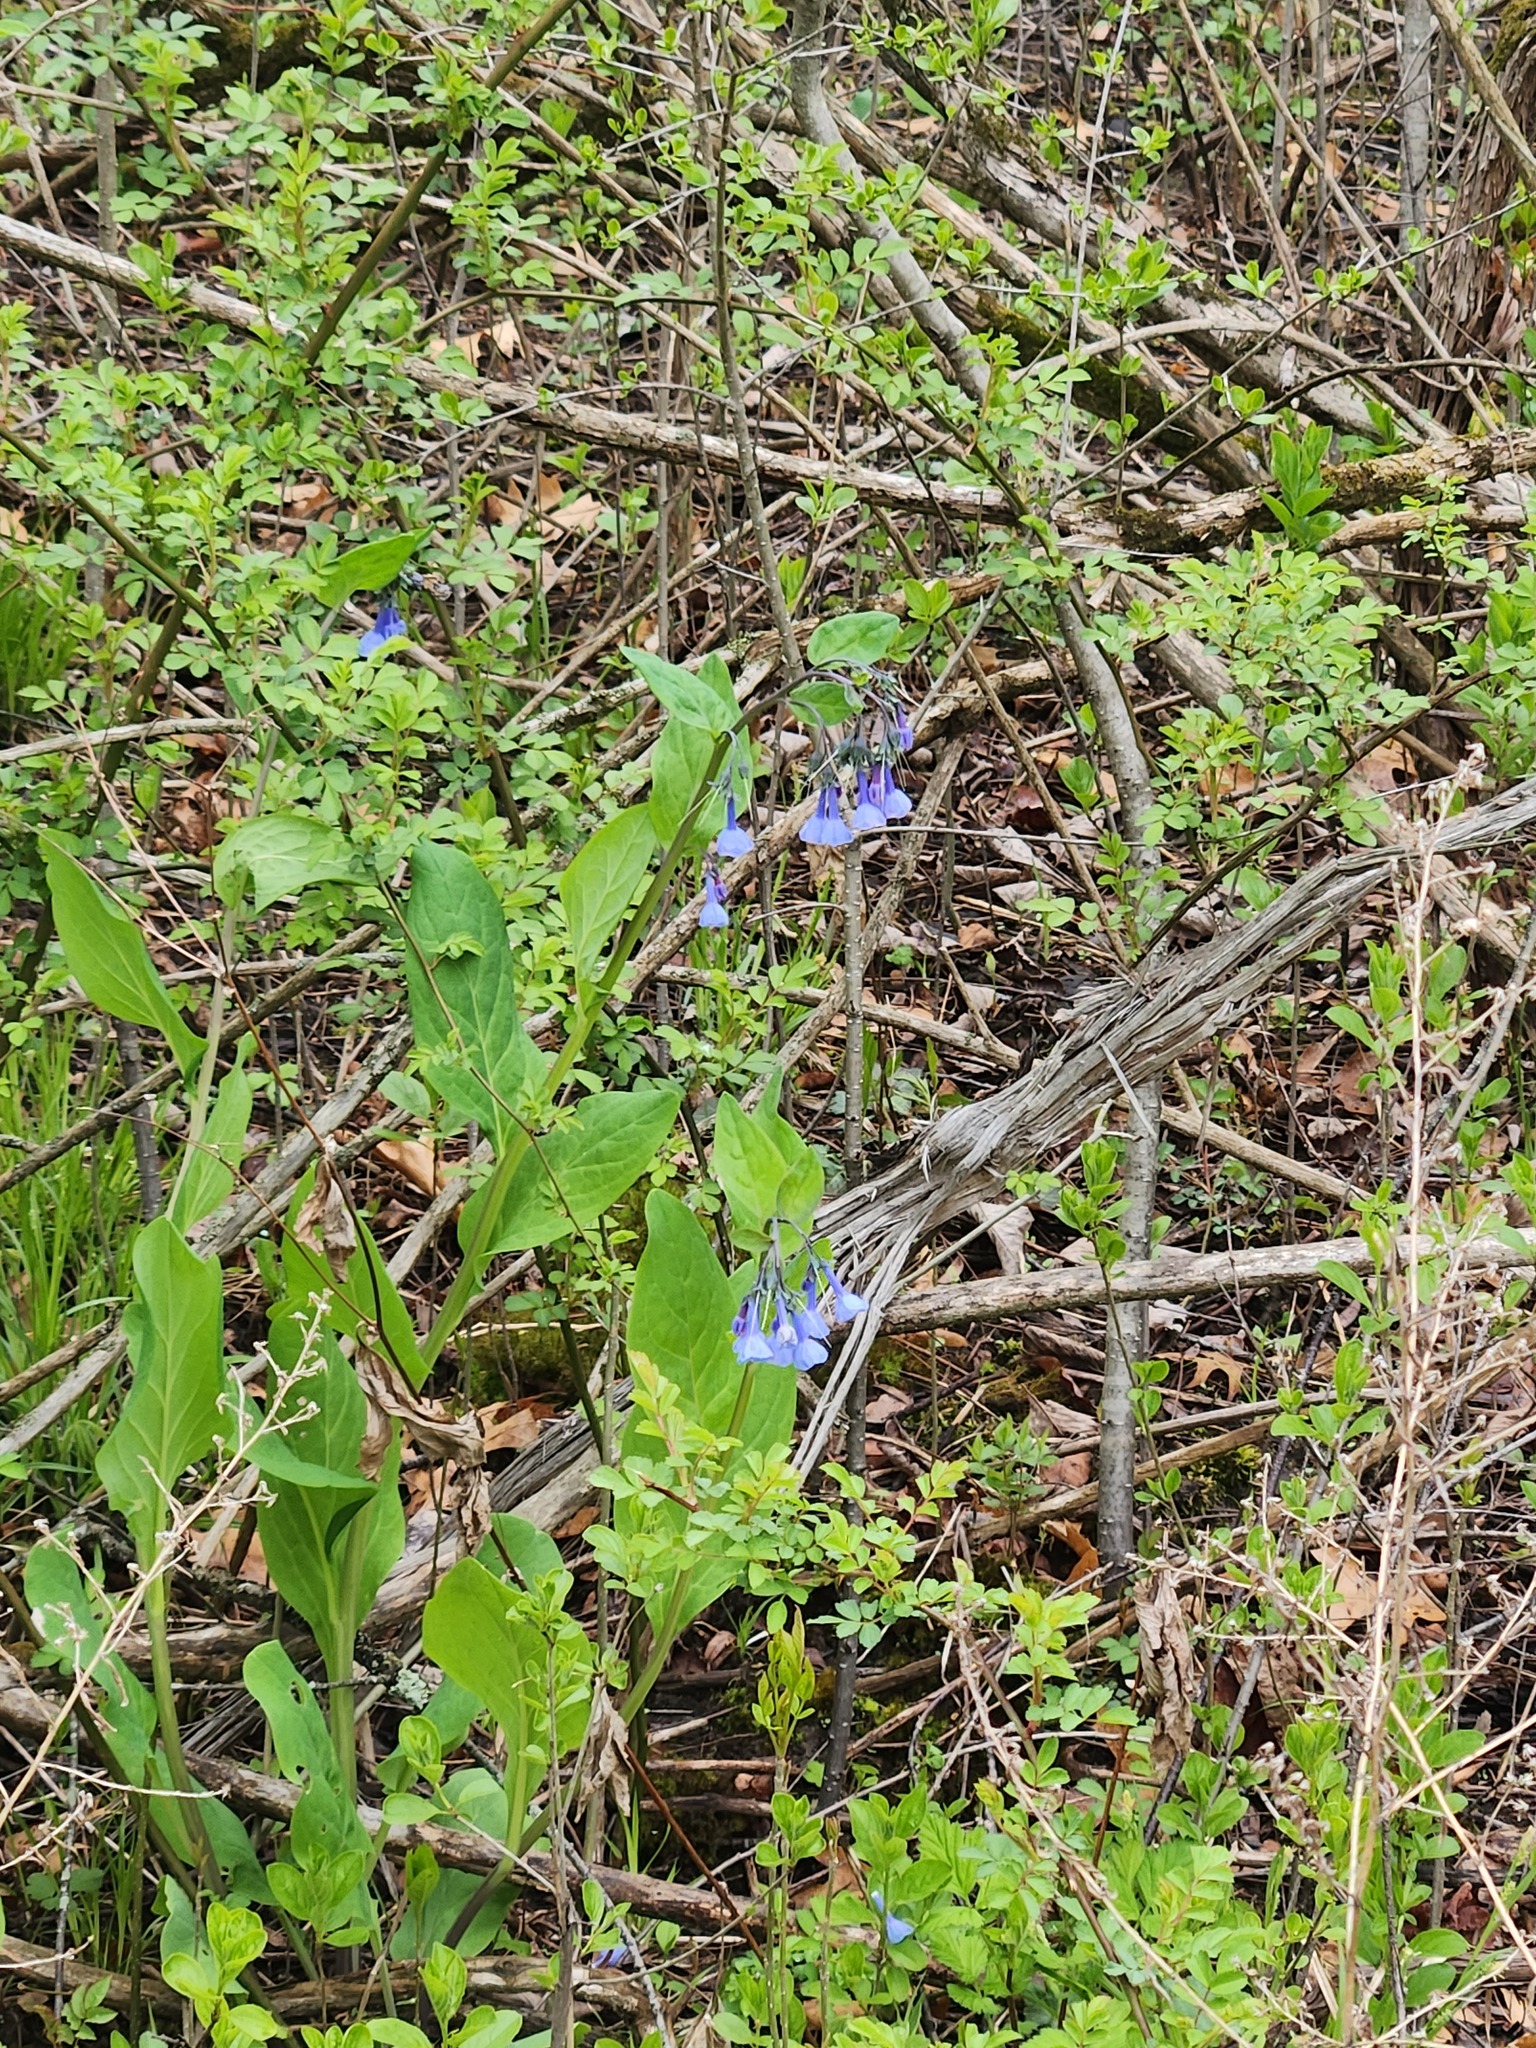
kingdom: Plantae
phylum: Tracheophyta
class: Magnoliopsida
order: Boraginales
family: Boraginaceae
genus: Mertensia
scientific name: Mertensia virginica
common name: Virginia bluebells
